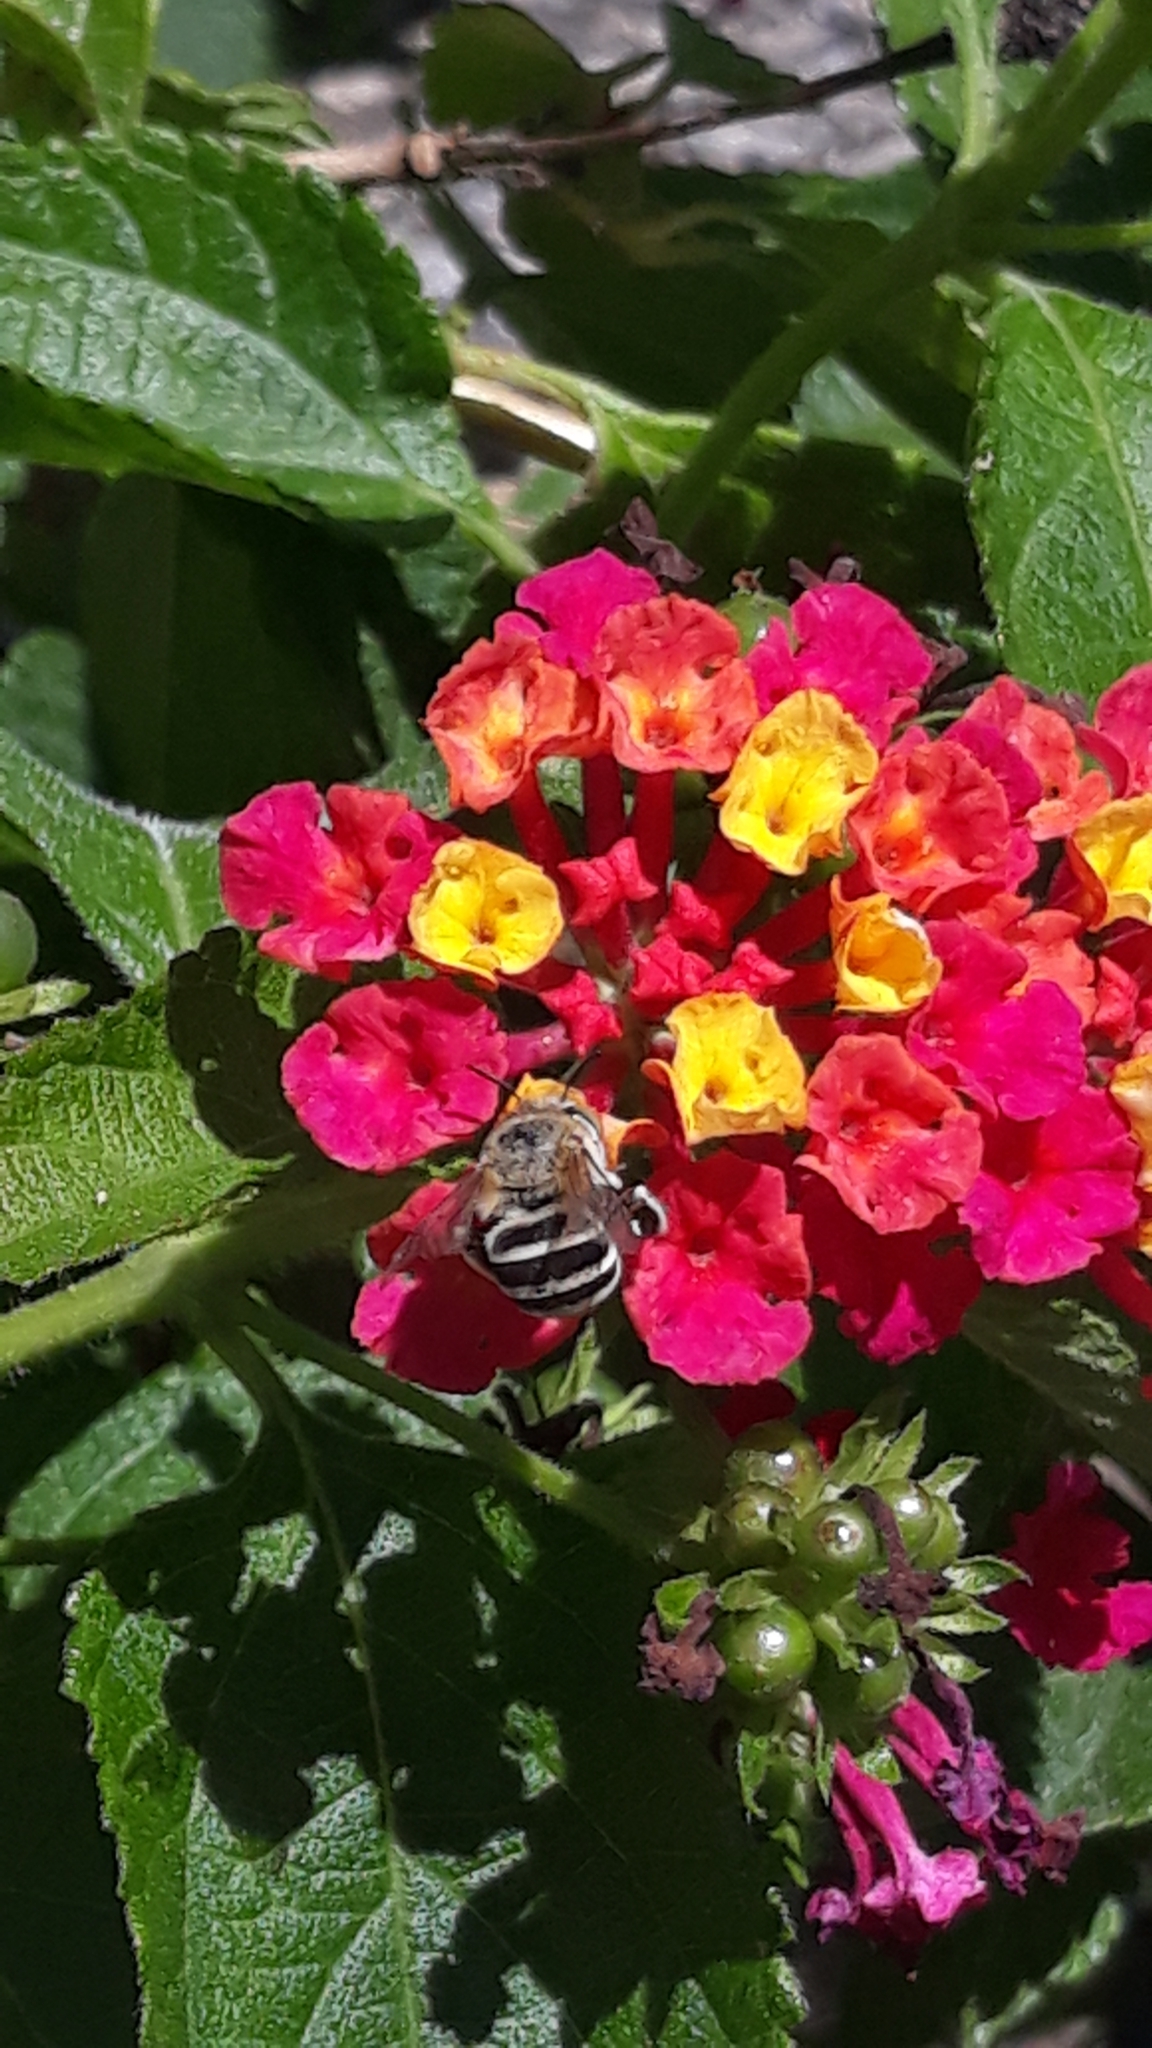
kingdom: Animalia
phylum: Arthropoda
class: Insecta
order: Hymenoptera
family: Apidae
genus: Amegilla
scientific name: Amegilla quadrifasciata
